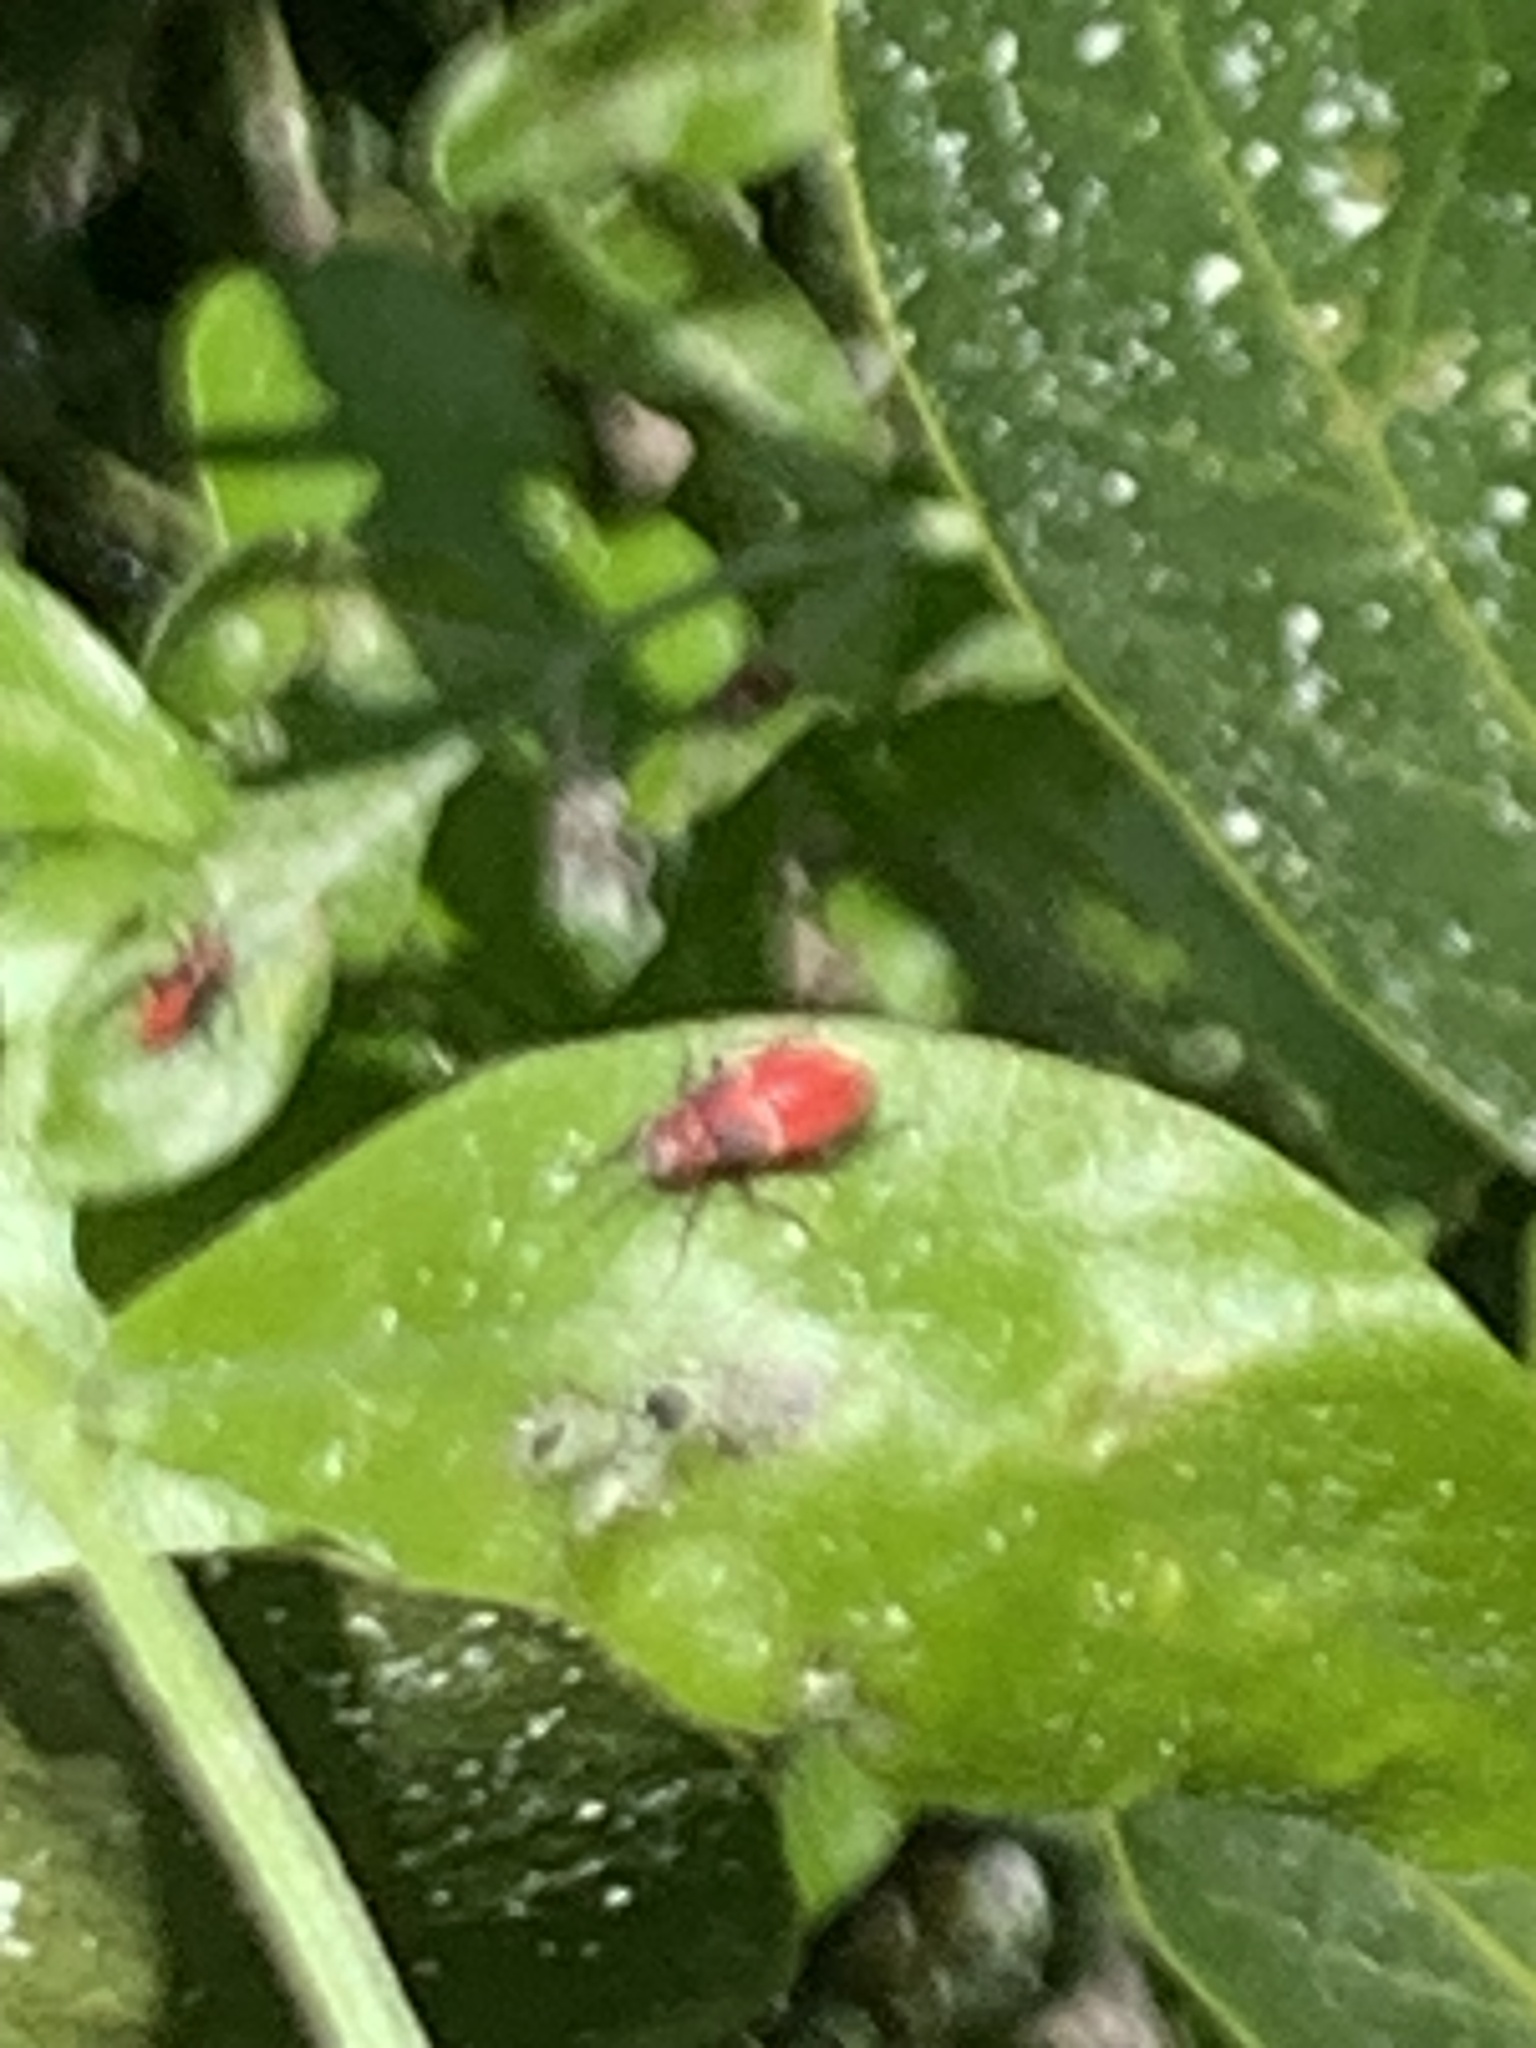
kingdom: Animalia
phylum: Arthropoda
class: Insecta
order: Hemiptera
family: Miridae
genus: Lopidea
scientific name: Lopidea major
